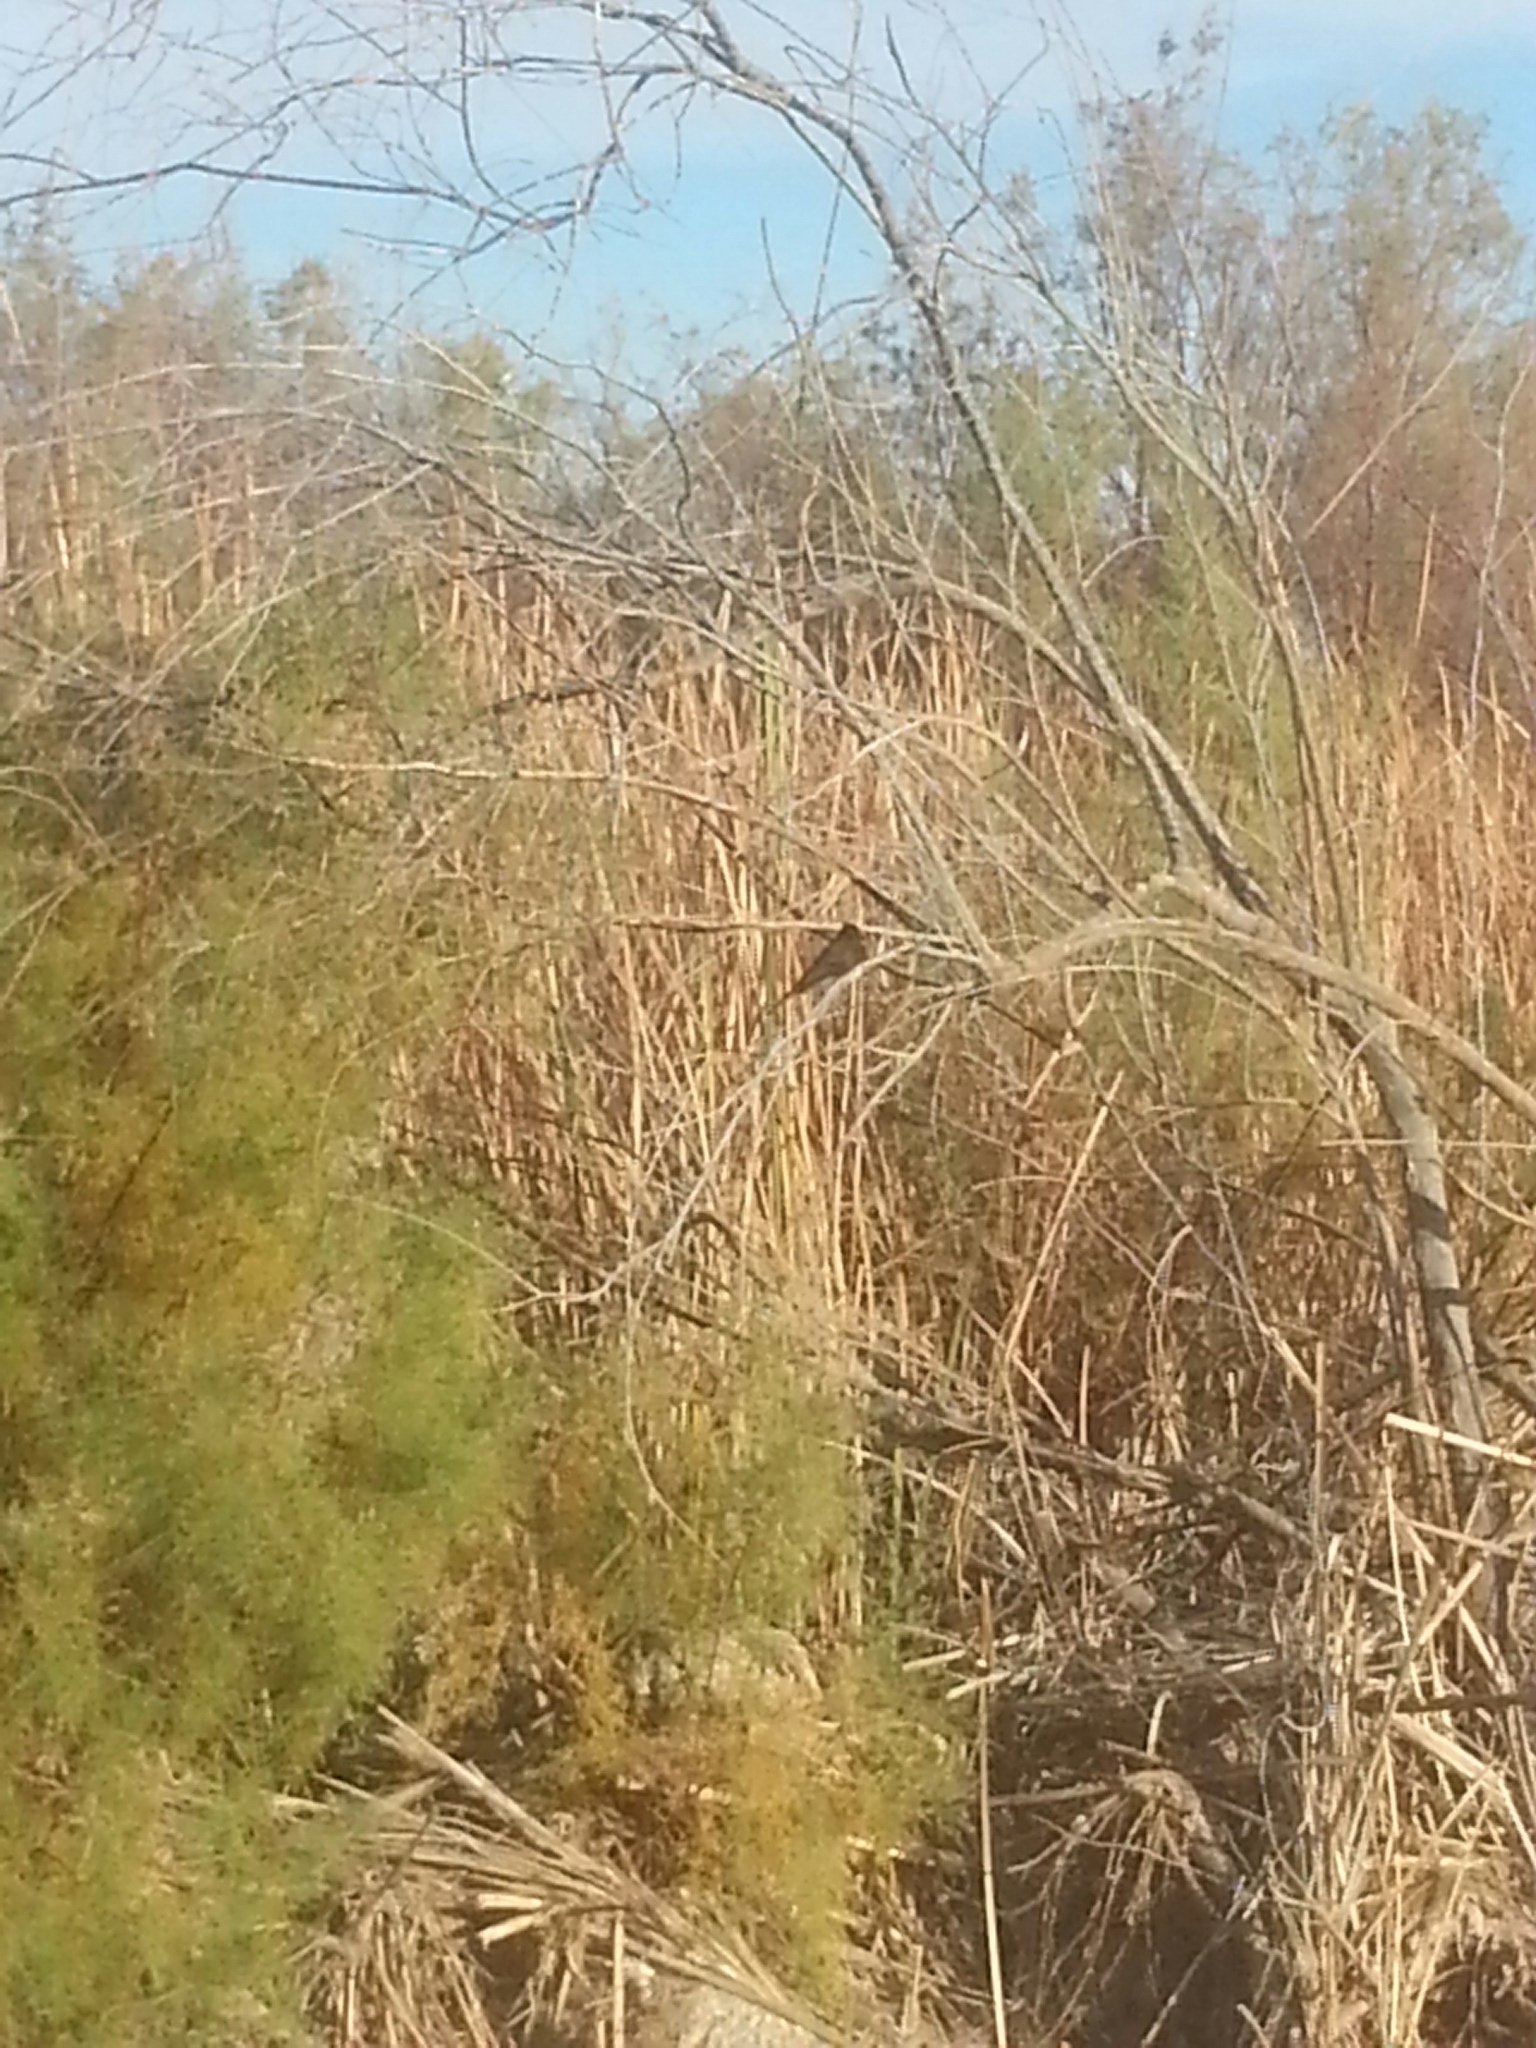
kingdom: Animalia
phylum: Chordata
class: Aves
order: Passeriformes
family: Tyrannidae
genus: Sayornis
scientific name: Sayornis nigricans
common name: Black phoebe
